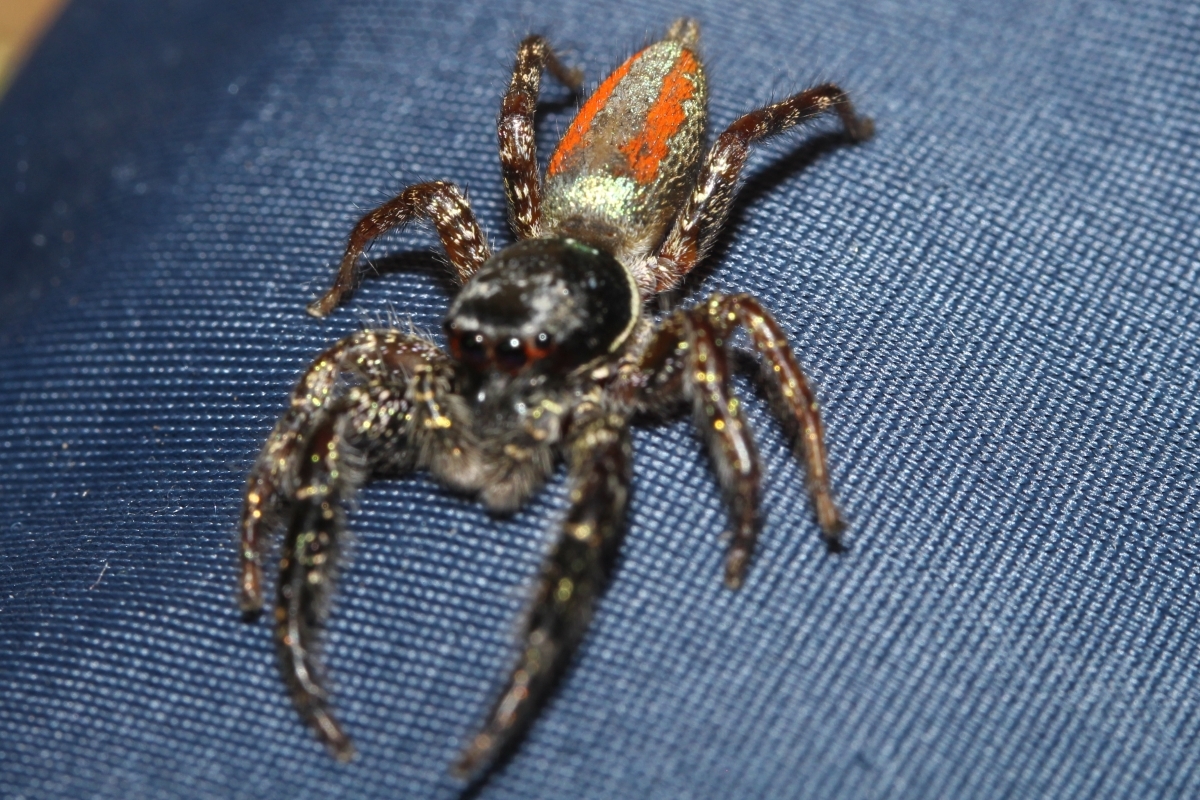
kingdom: Animalia
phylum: Arthropoda
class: Arachnida
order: Araneae
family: Salticidae
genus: Psecas
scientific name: Psecas viridipurpureus
